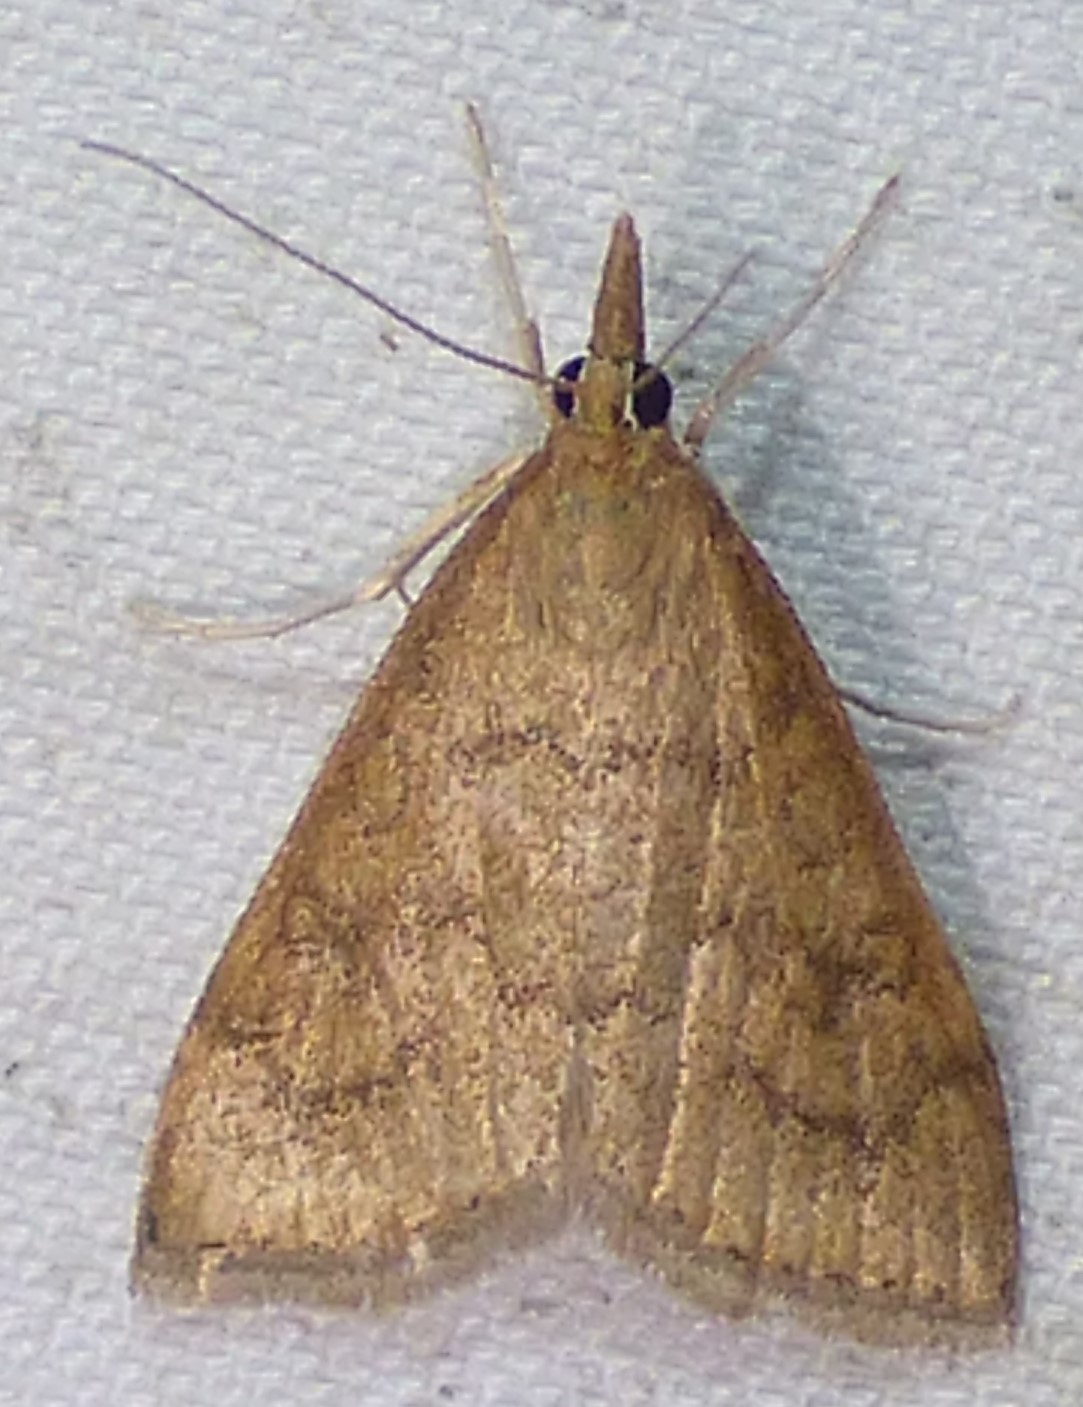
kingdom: Animalia
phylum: Arthropoda
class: Insecta
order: Lepidoptera
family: Crambidae
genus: Udea
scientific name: Udea rubigalis
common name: Celery leaftier moth
